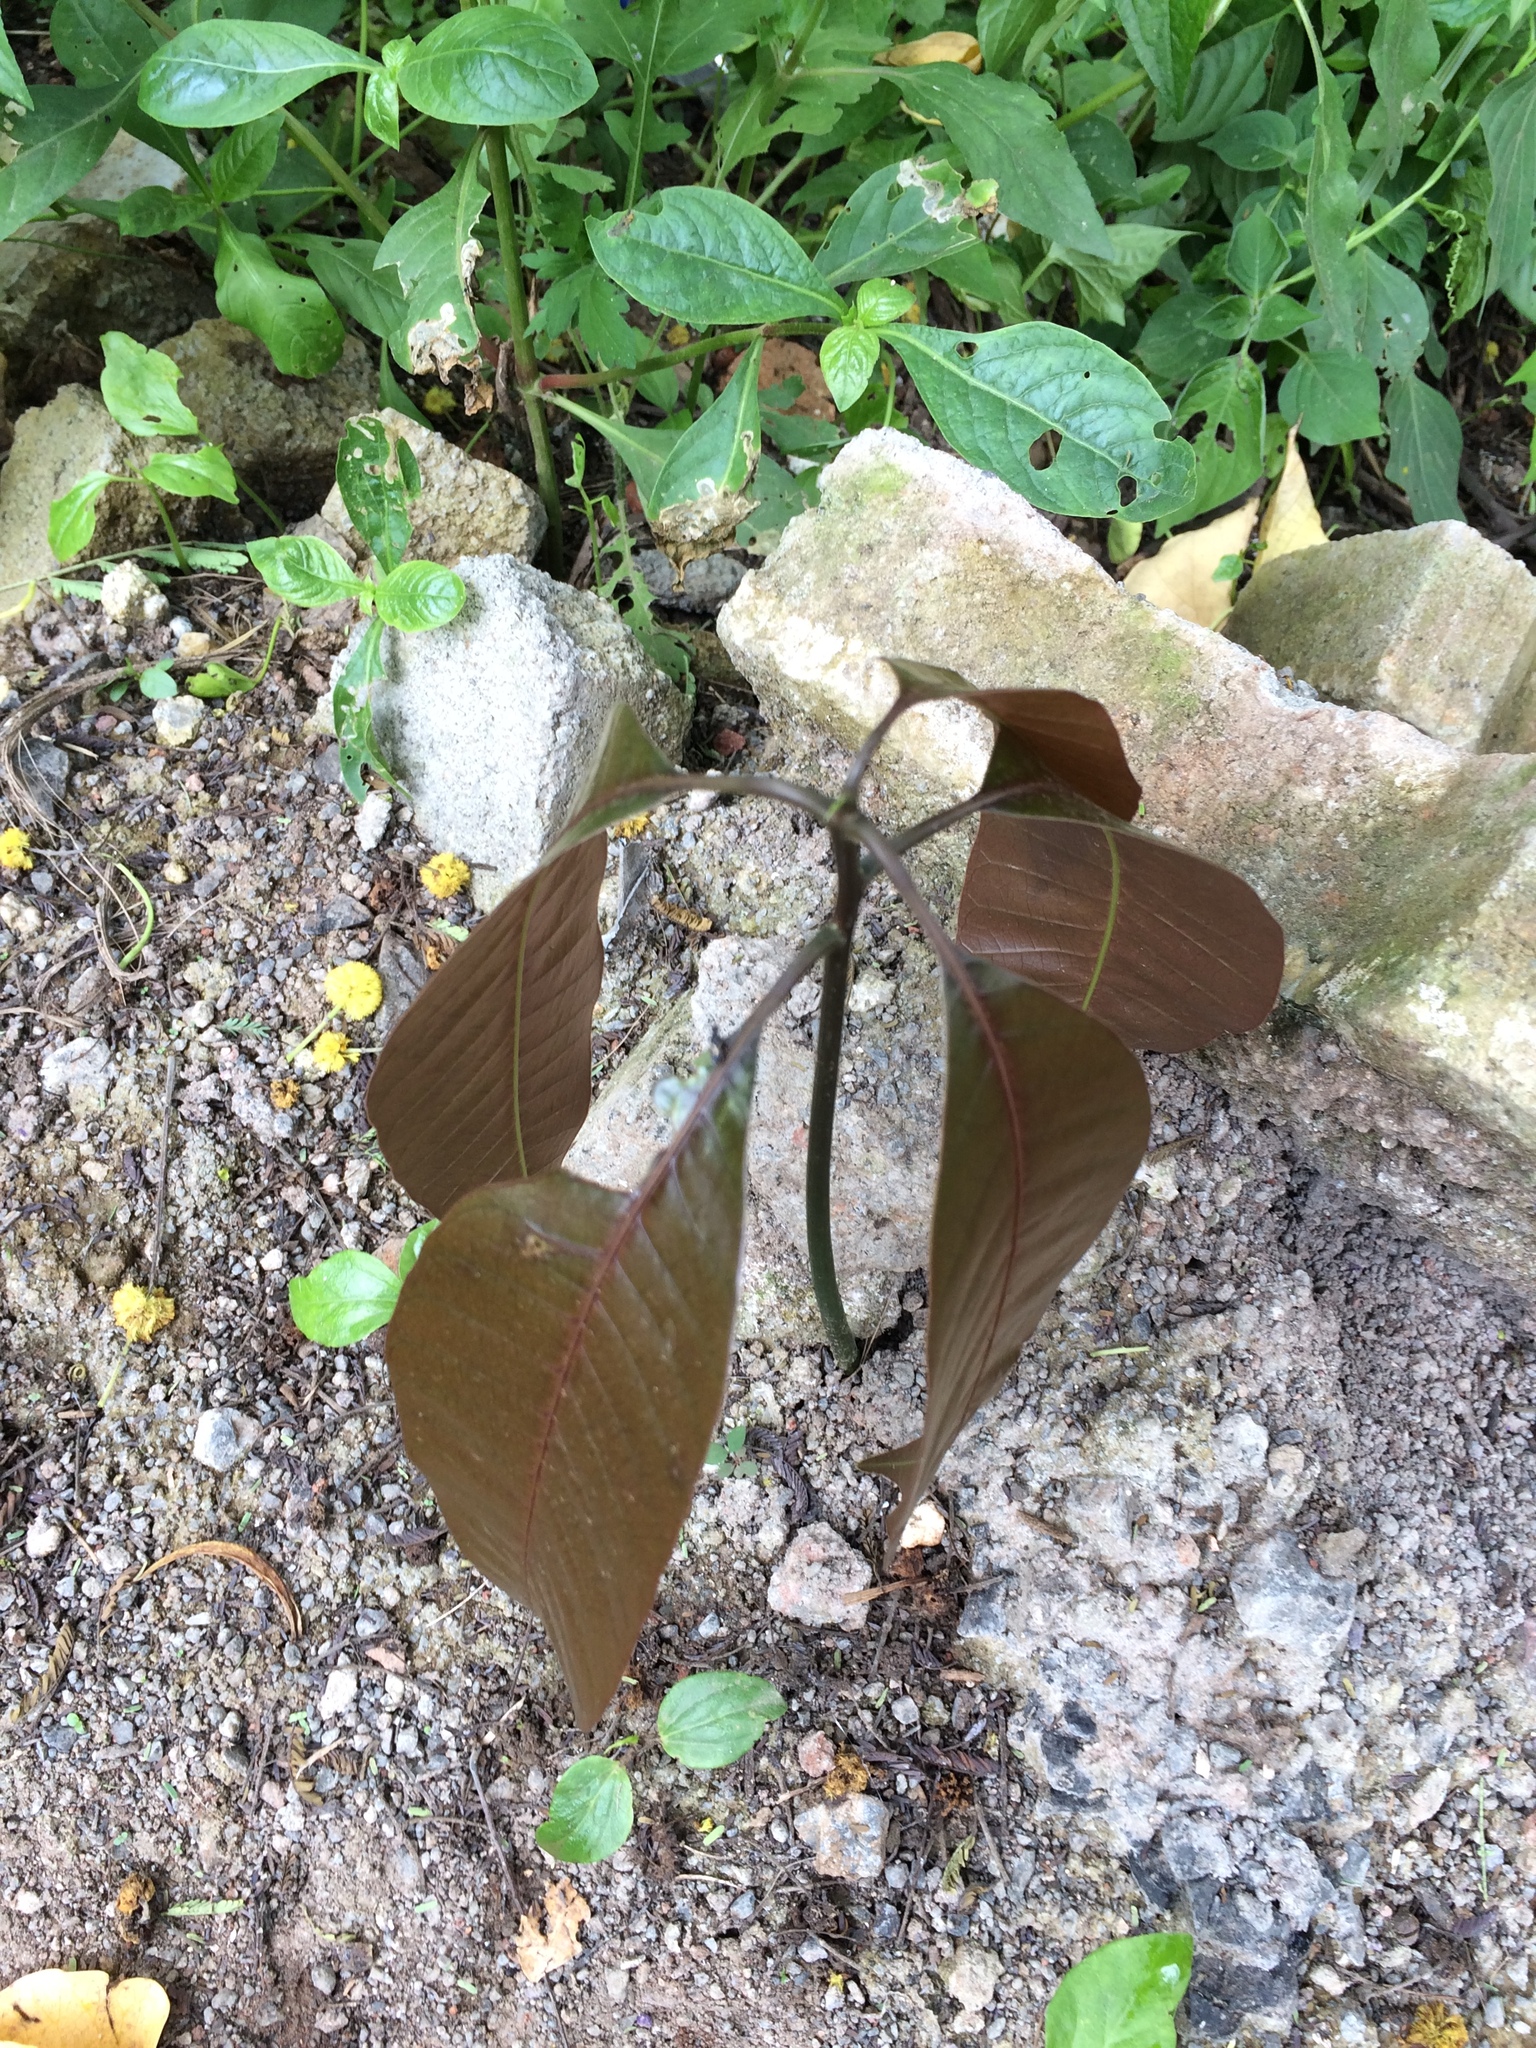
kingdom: Plantae
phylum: Tracheophyta
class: Magnoliopsida
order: Sapindales
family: Anacardiaceae
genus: Mangifera
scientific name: Mangifera indica
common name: Mango
